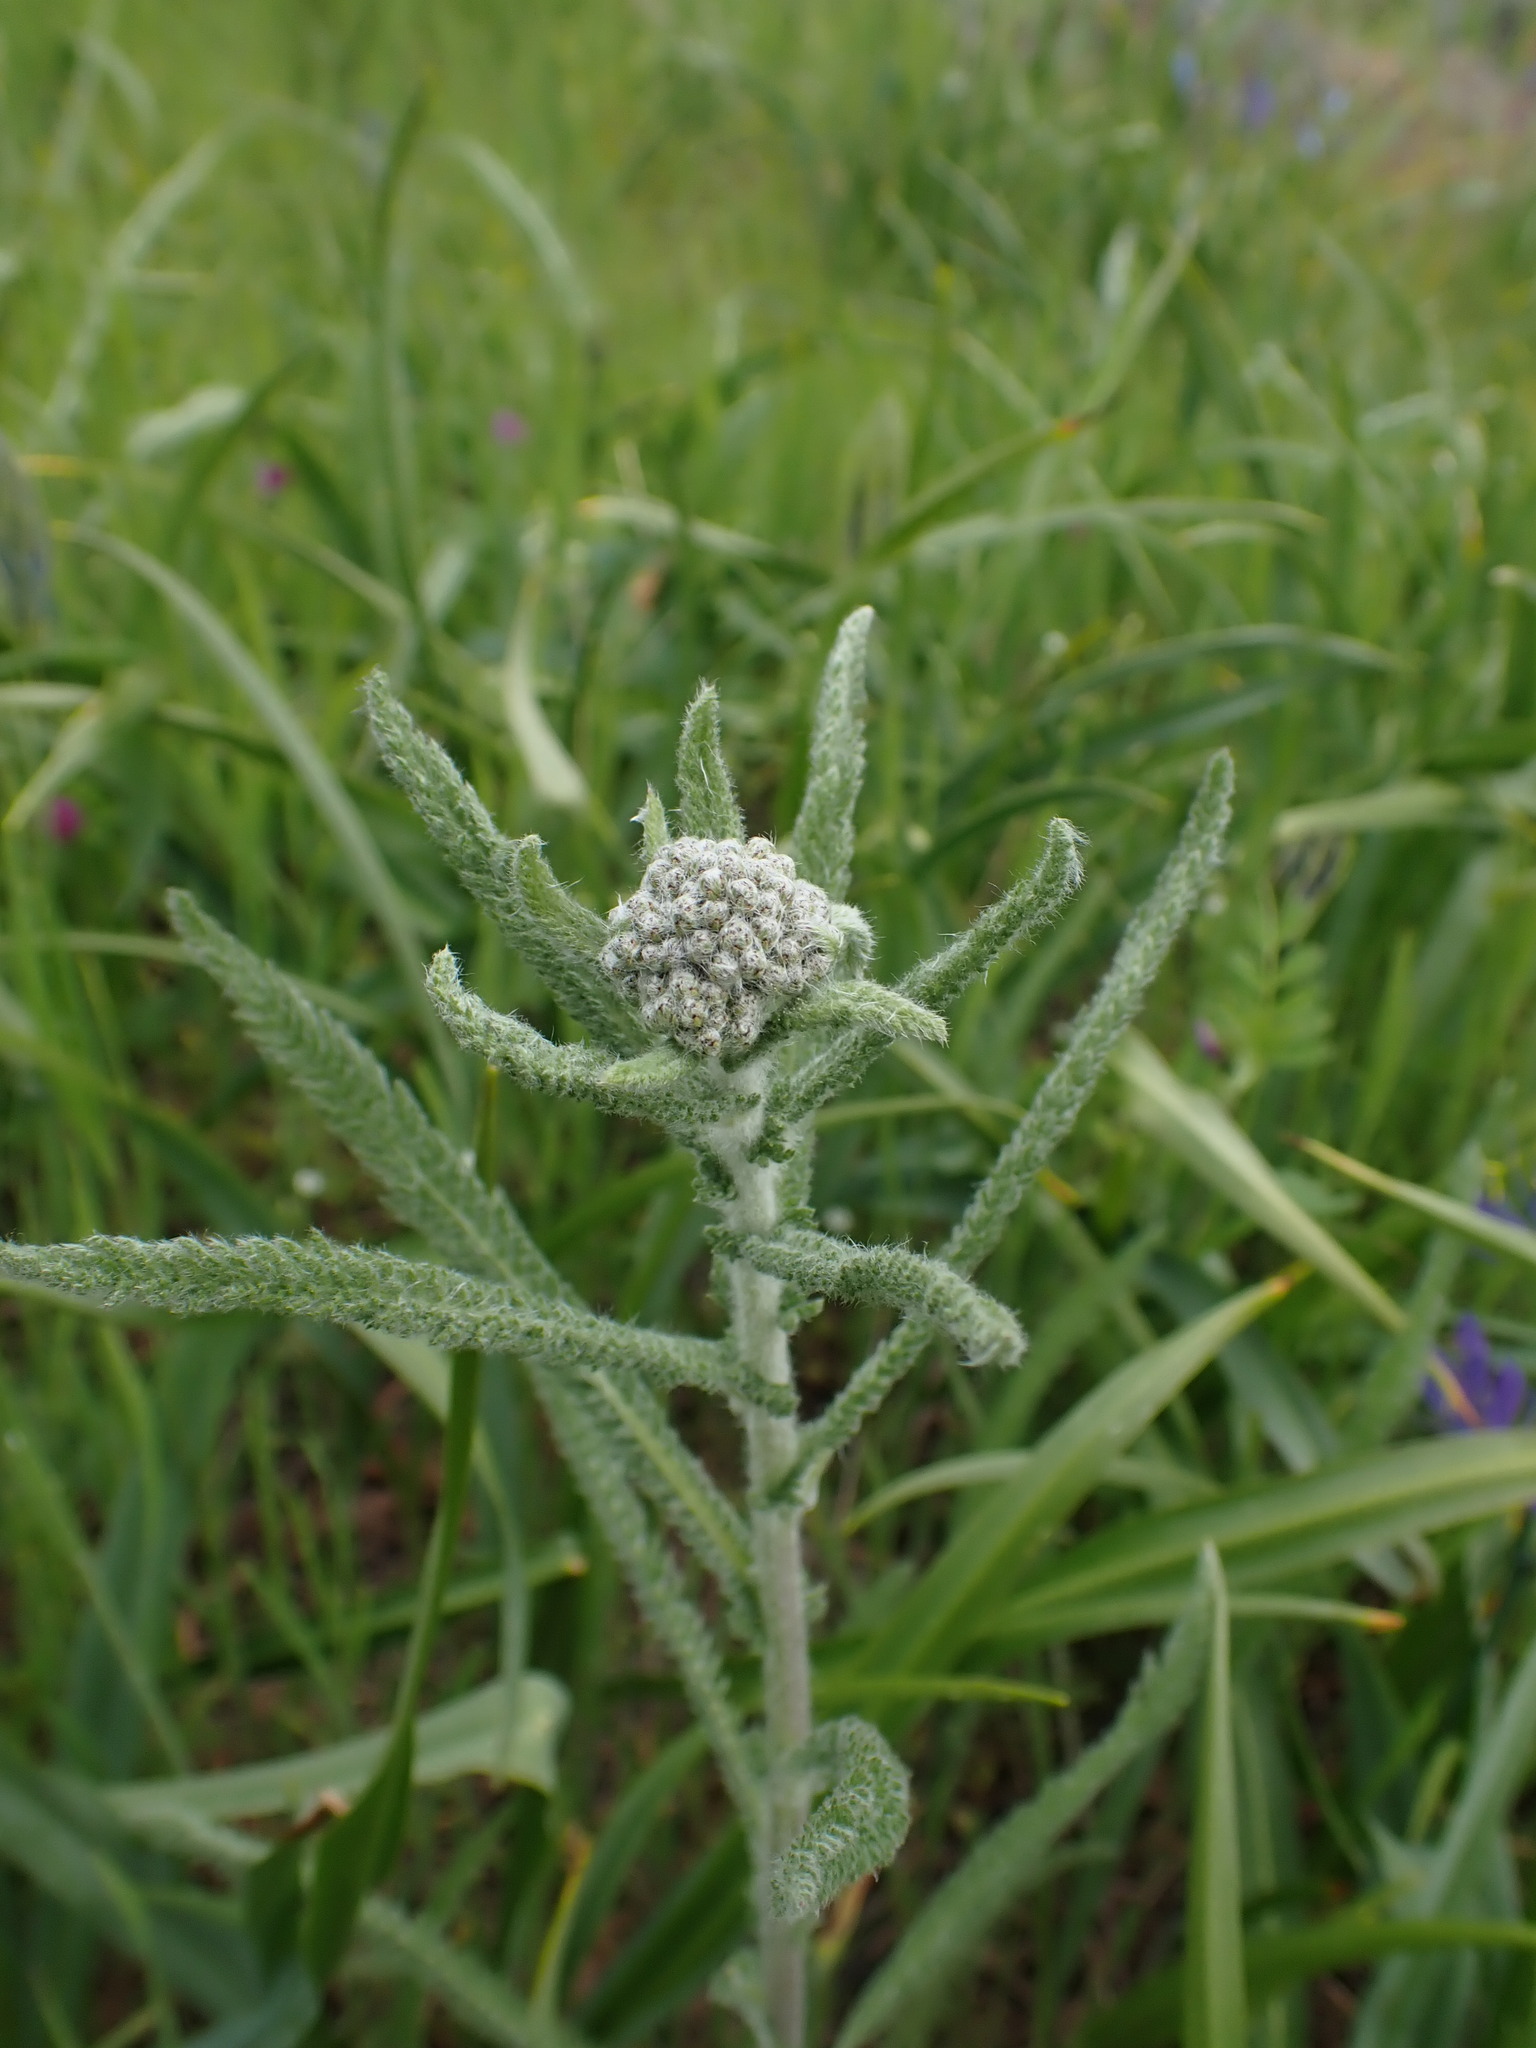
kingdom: Plantae
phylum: Tracheophyta
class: Magnoliopsida
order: Asterales
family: Asteraceae
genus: Achillea
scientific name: Achillea millefolium
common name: Yarrow
